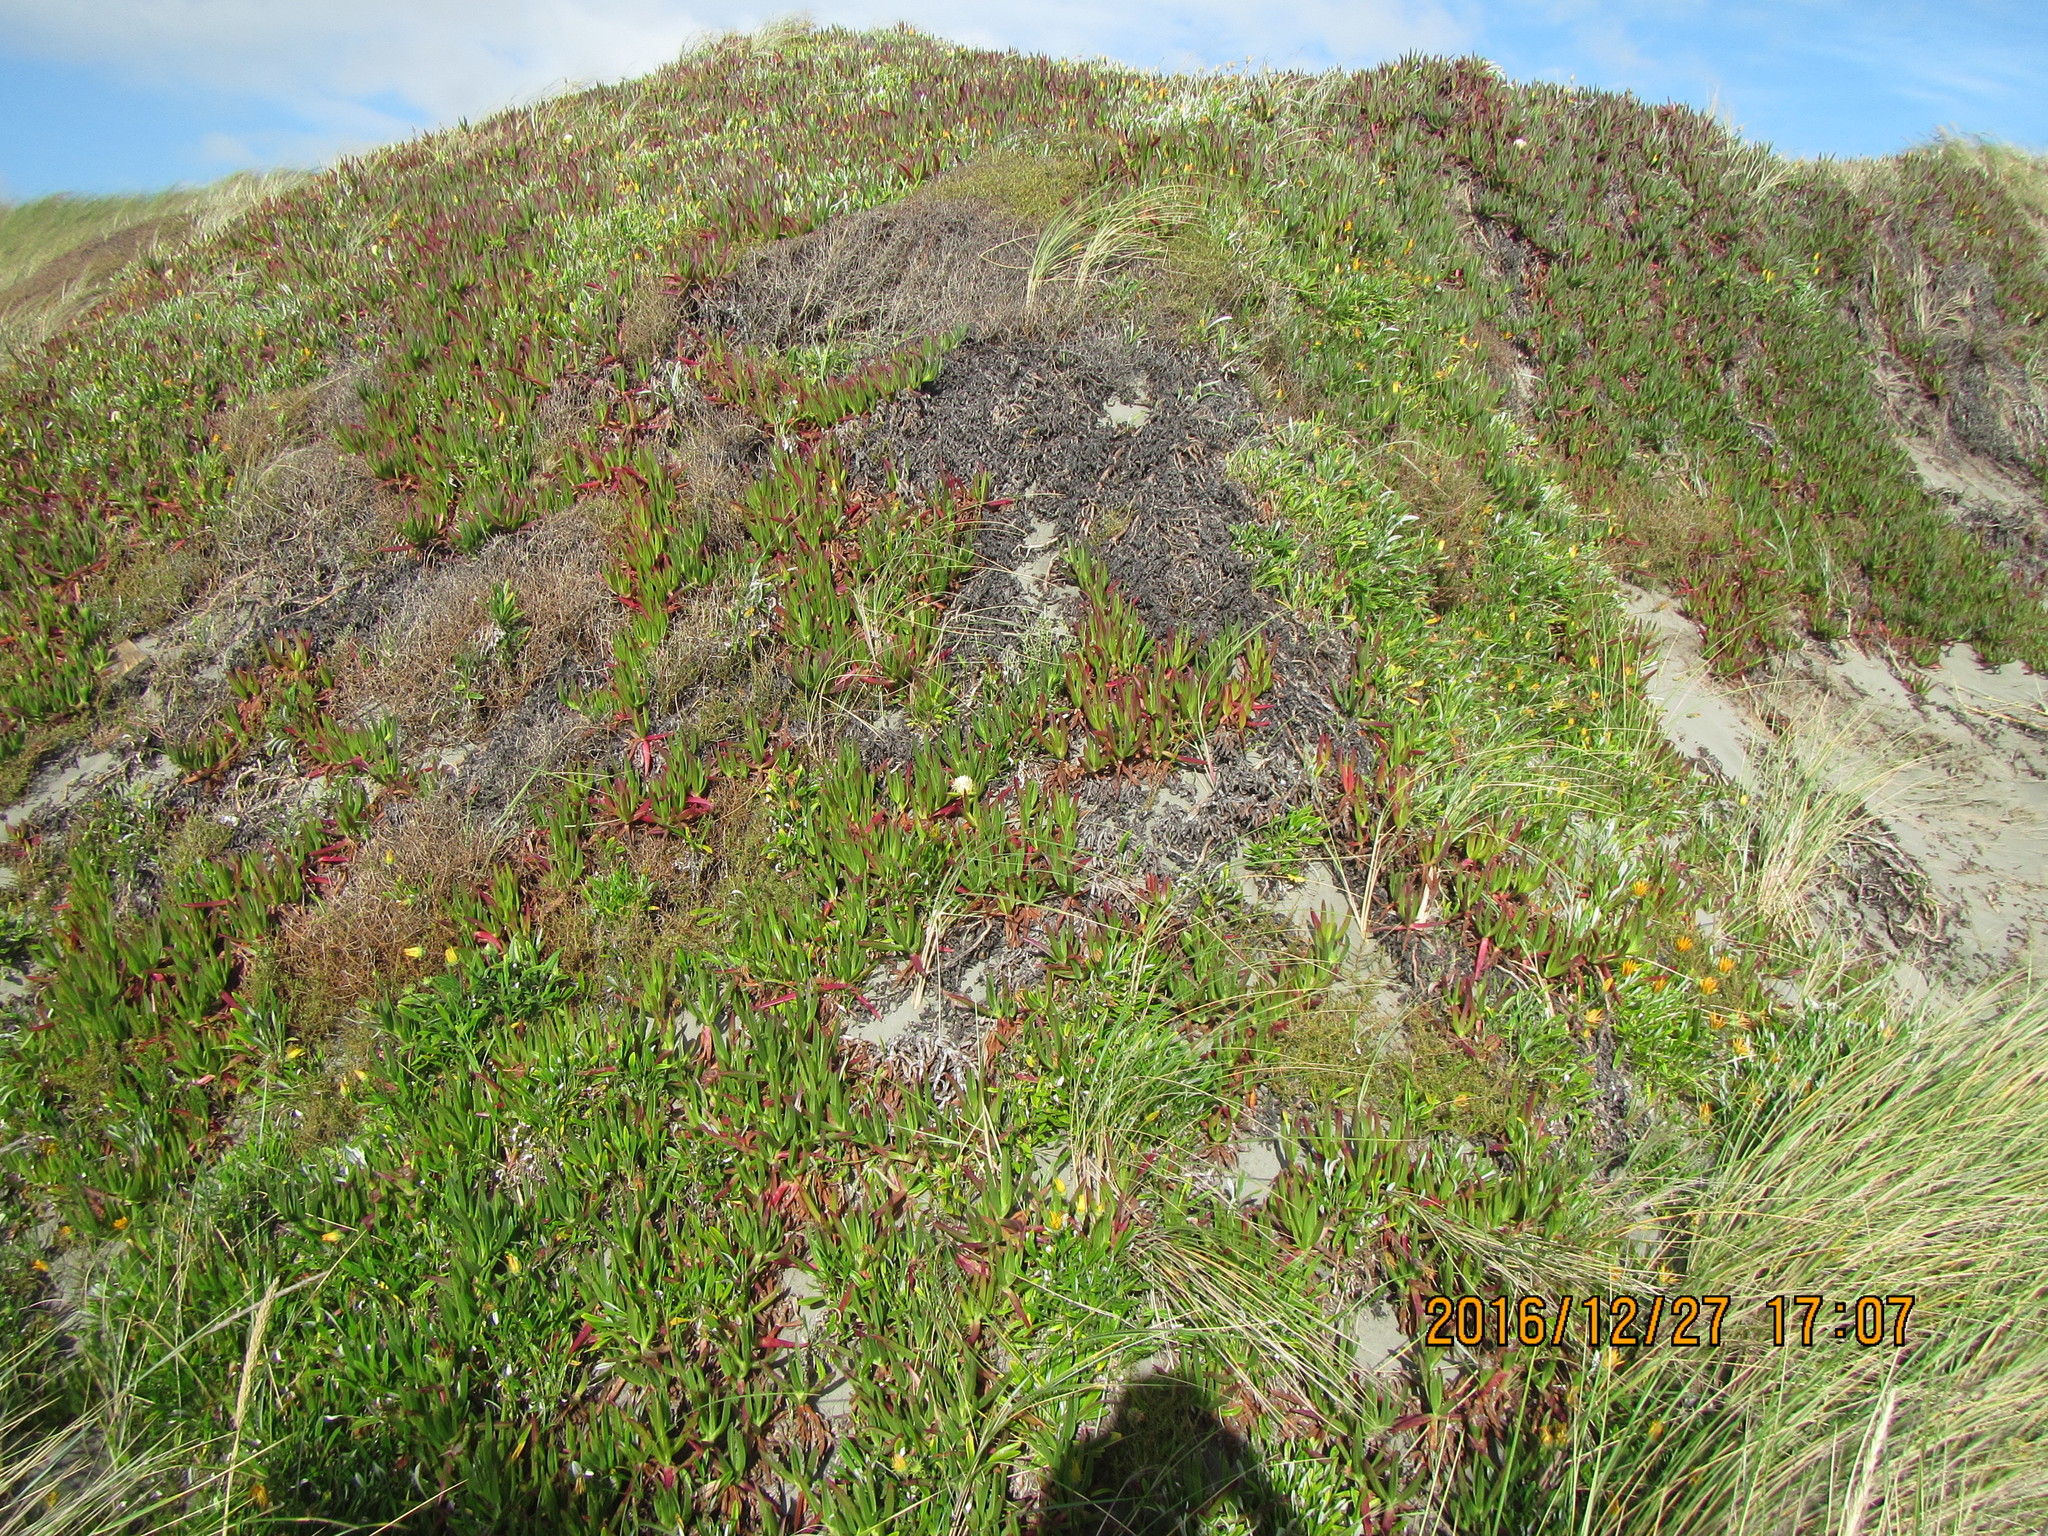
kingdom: Plantae
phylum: Tracheophyta
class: Magnoliopsida
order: Caryophyllales
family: Aizoaceae
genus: Carpobrotus
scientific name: Carpobrotus edulis
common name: Hottentot-fig
